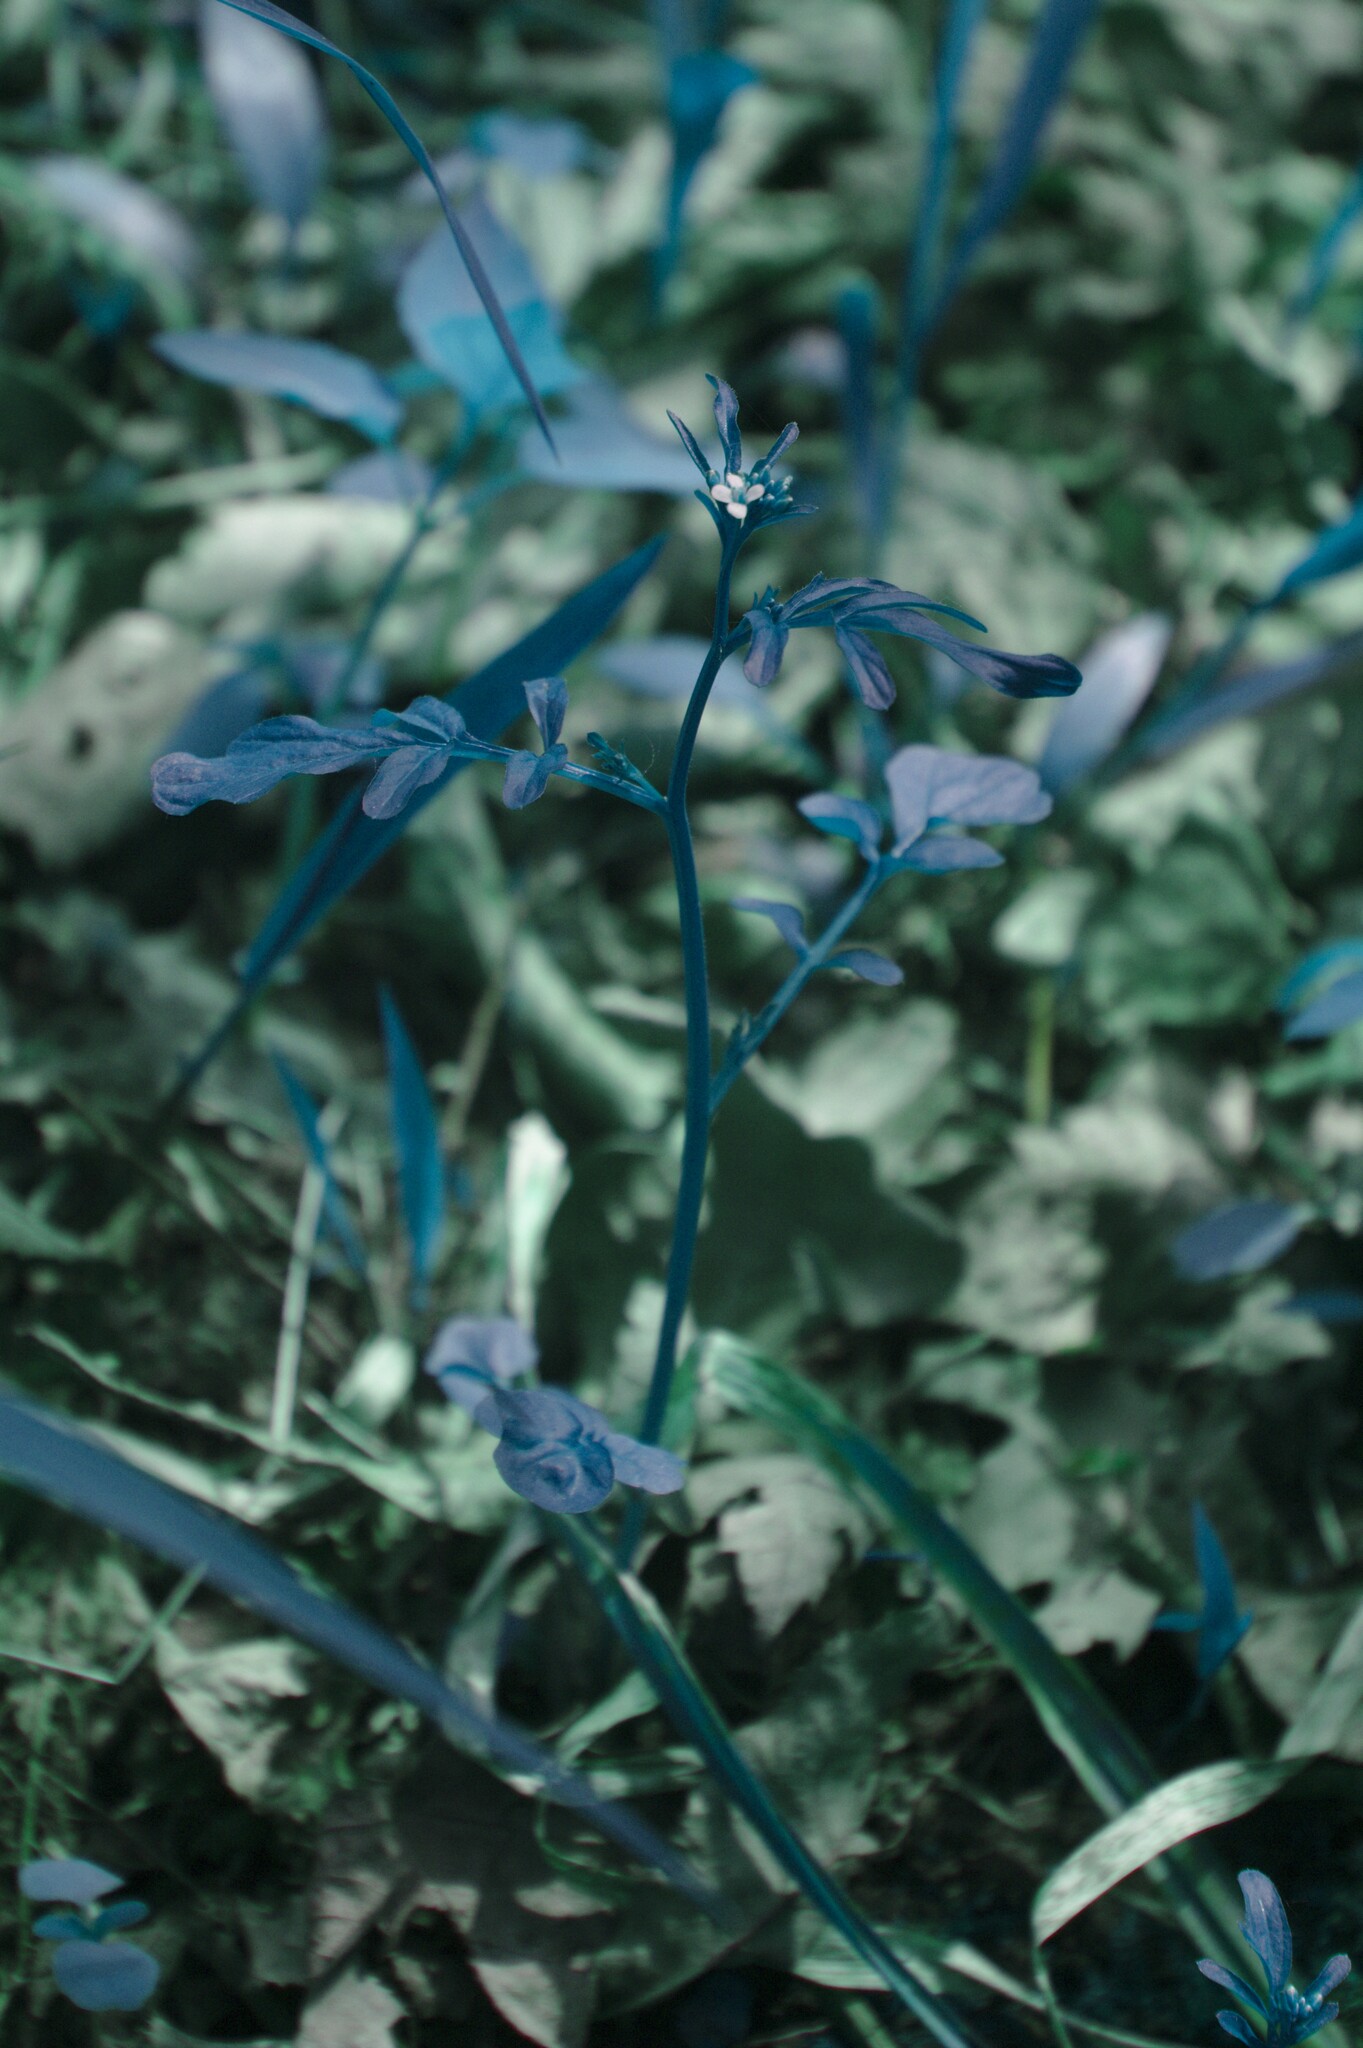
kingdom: Plantae
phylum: Tracheophyta
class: Magnoliopsida
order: Brassicales
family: Brassicaceae
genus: Cardamine
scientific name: Cardamine pensylvanica
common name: Pennsylvania bittercress
